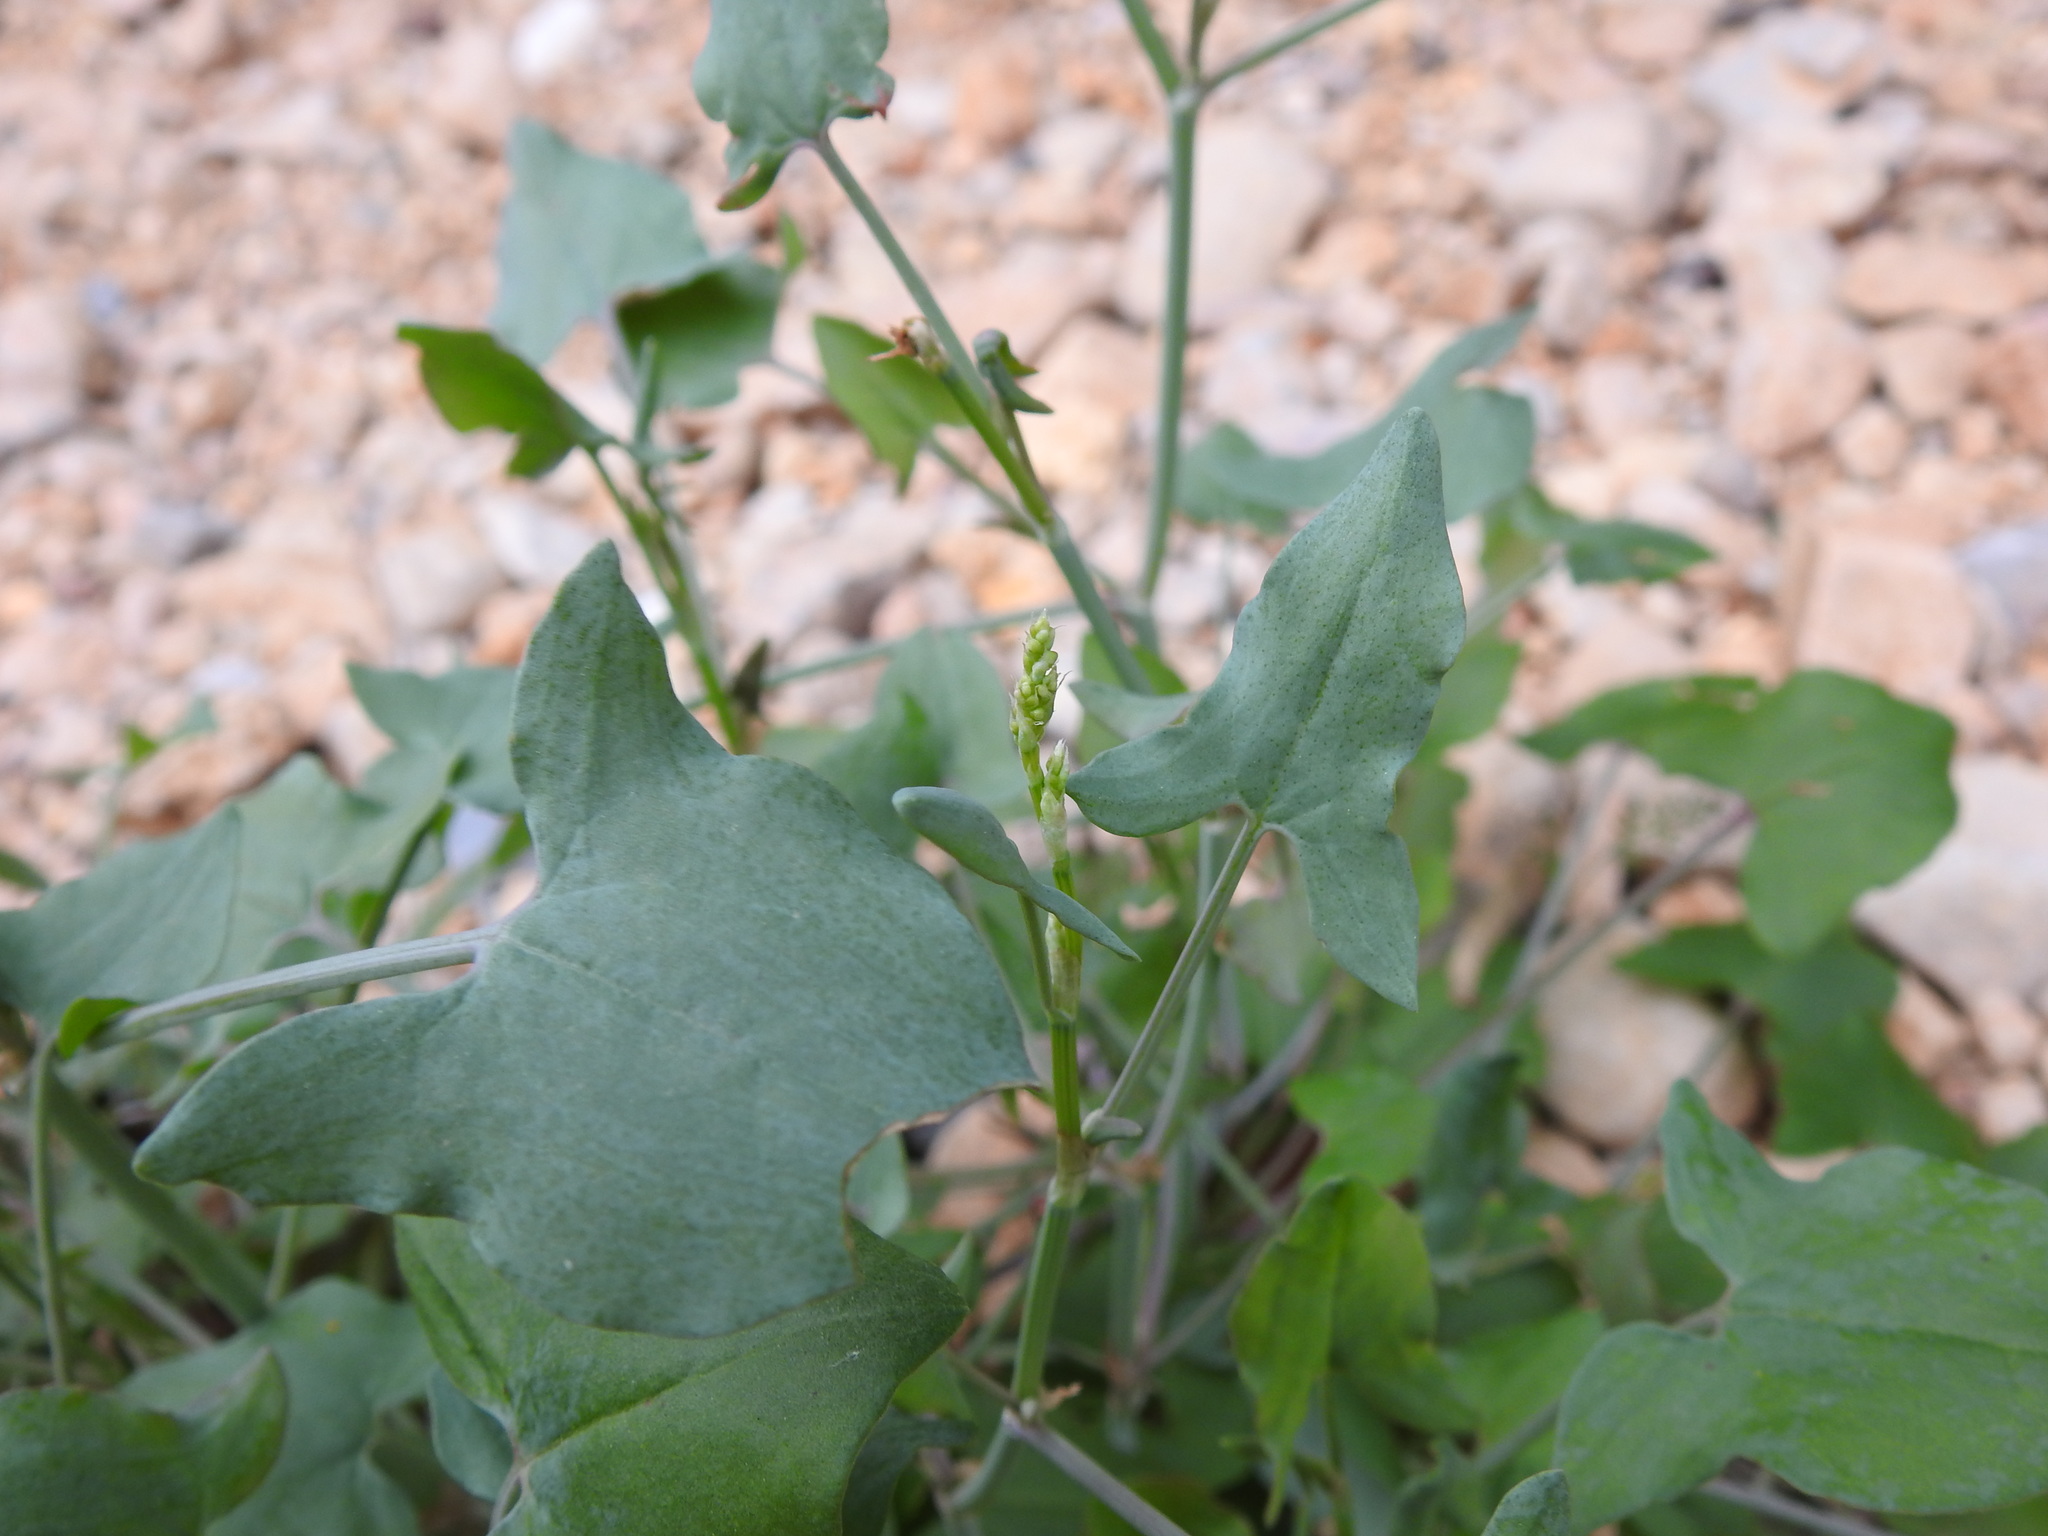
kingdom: Plantae
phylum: Tracheophyta
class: Magnoliopsida
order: Caryophyllales
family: Polygonaceae
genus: Rumex
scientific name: Rumex induratus
